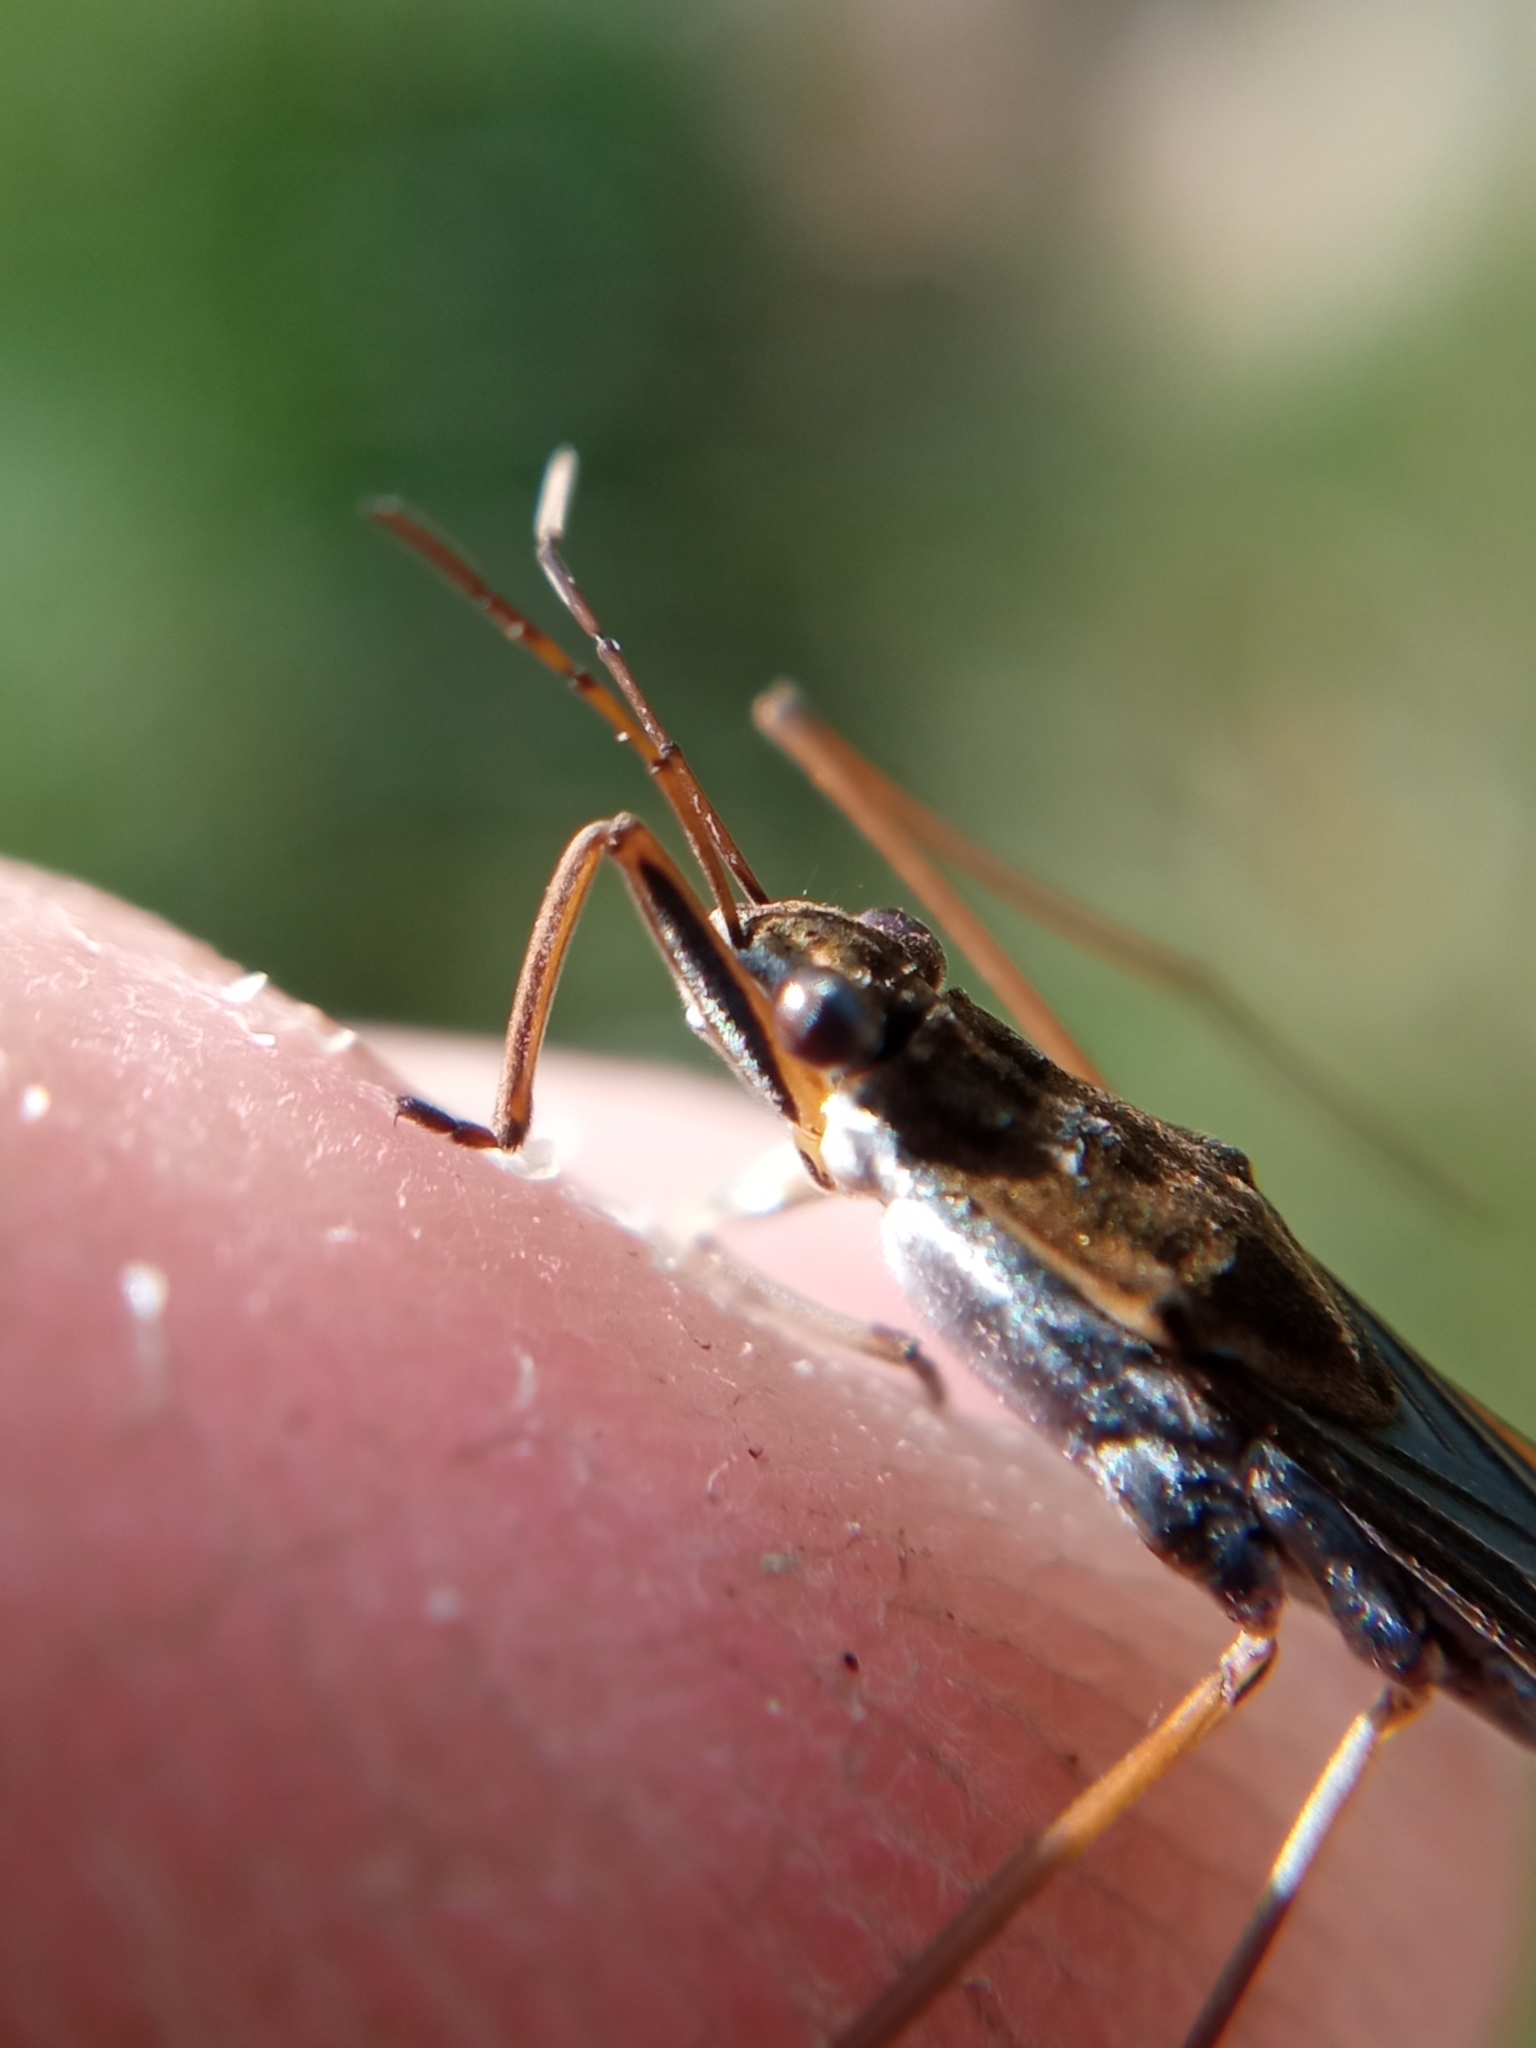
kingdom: Animalia
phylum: Arthropoda
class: Insecta
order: Hemiptera
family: Gerridae
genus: Gerris
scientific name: Gerris gibbifer
